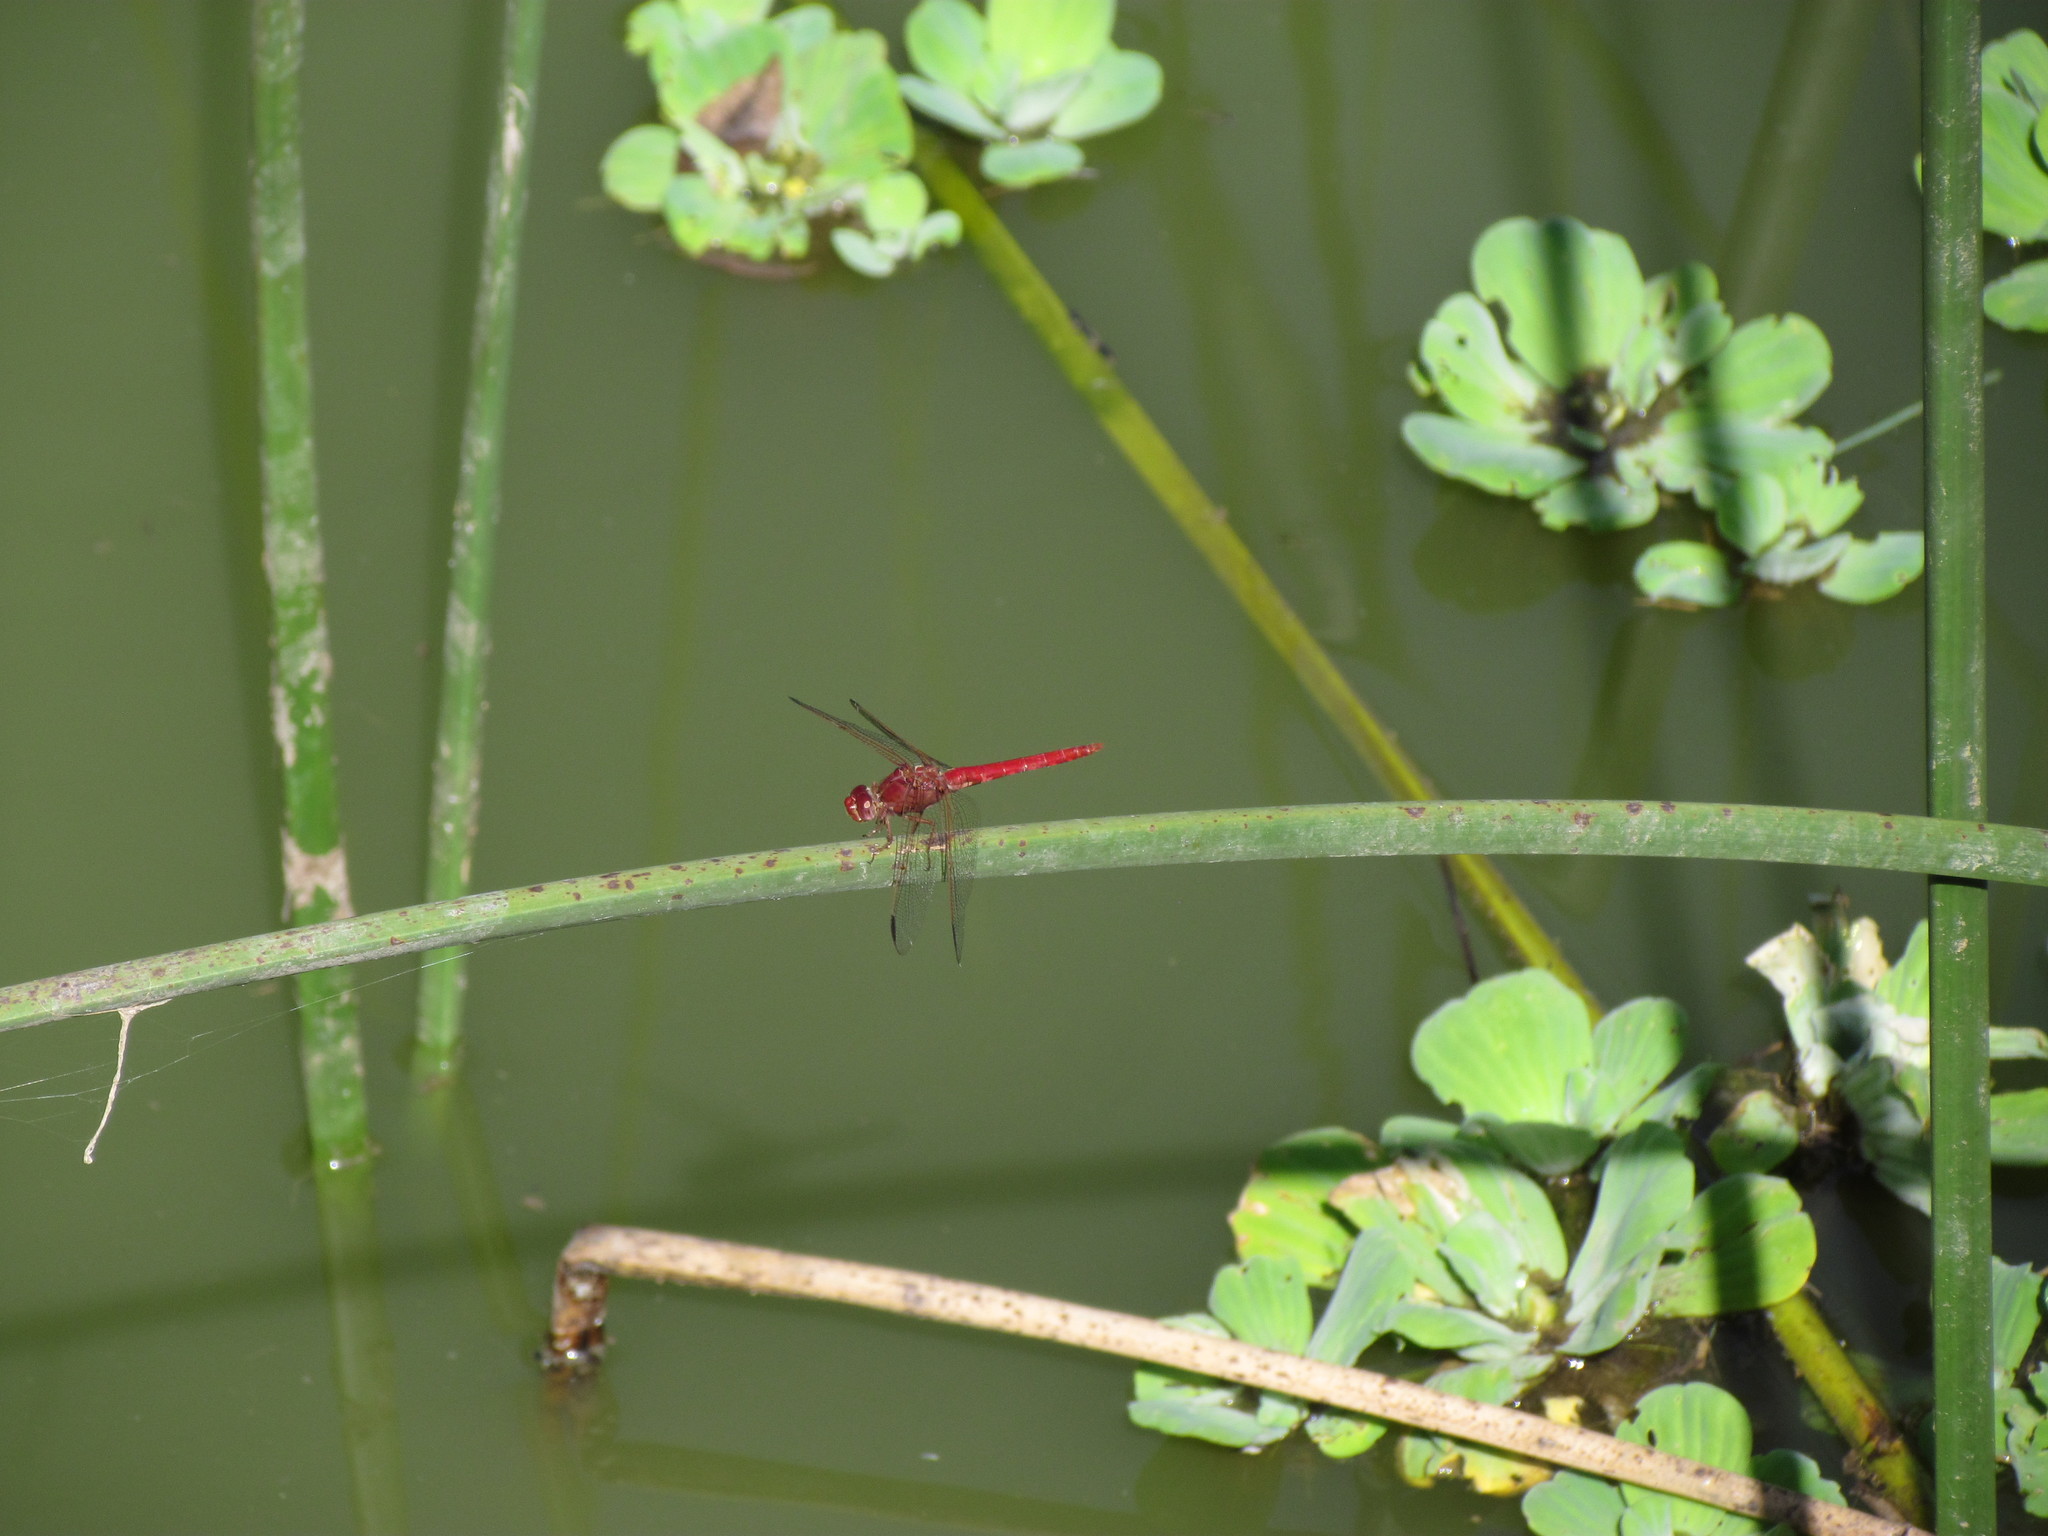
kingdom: Animalia
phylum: Arthropoda
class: Insecta
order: Odonata
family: Libellulidae
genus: Orthemis
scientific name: Orthemis nodiplaga
